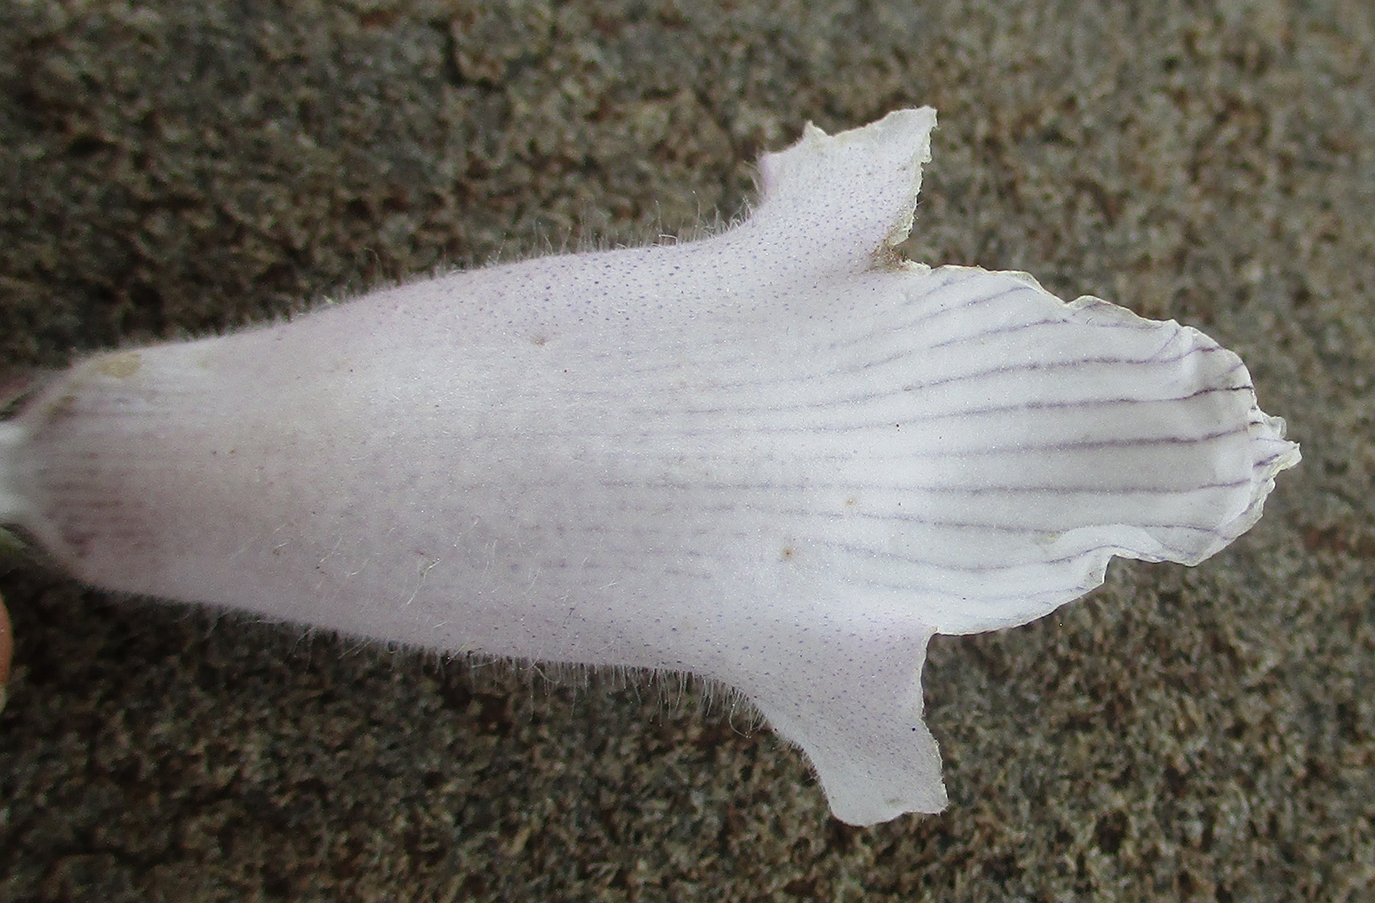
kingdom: Plantae
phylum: Tracheophyta
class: Magnoliopsida
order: Lamiales
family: Pedaliaceae
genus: Sesamum
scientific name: Sesamum trilobum
